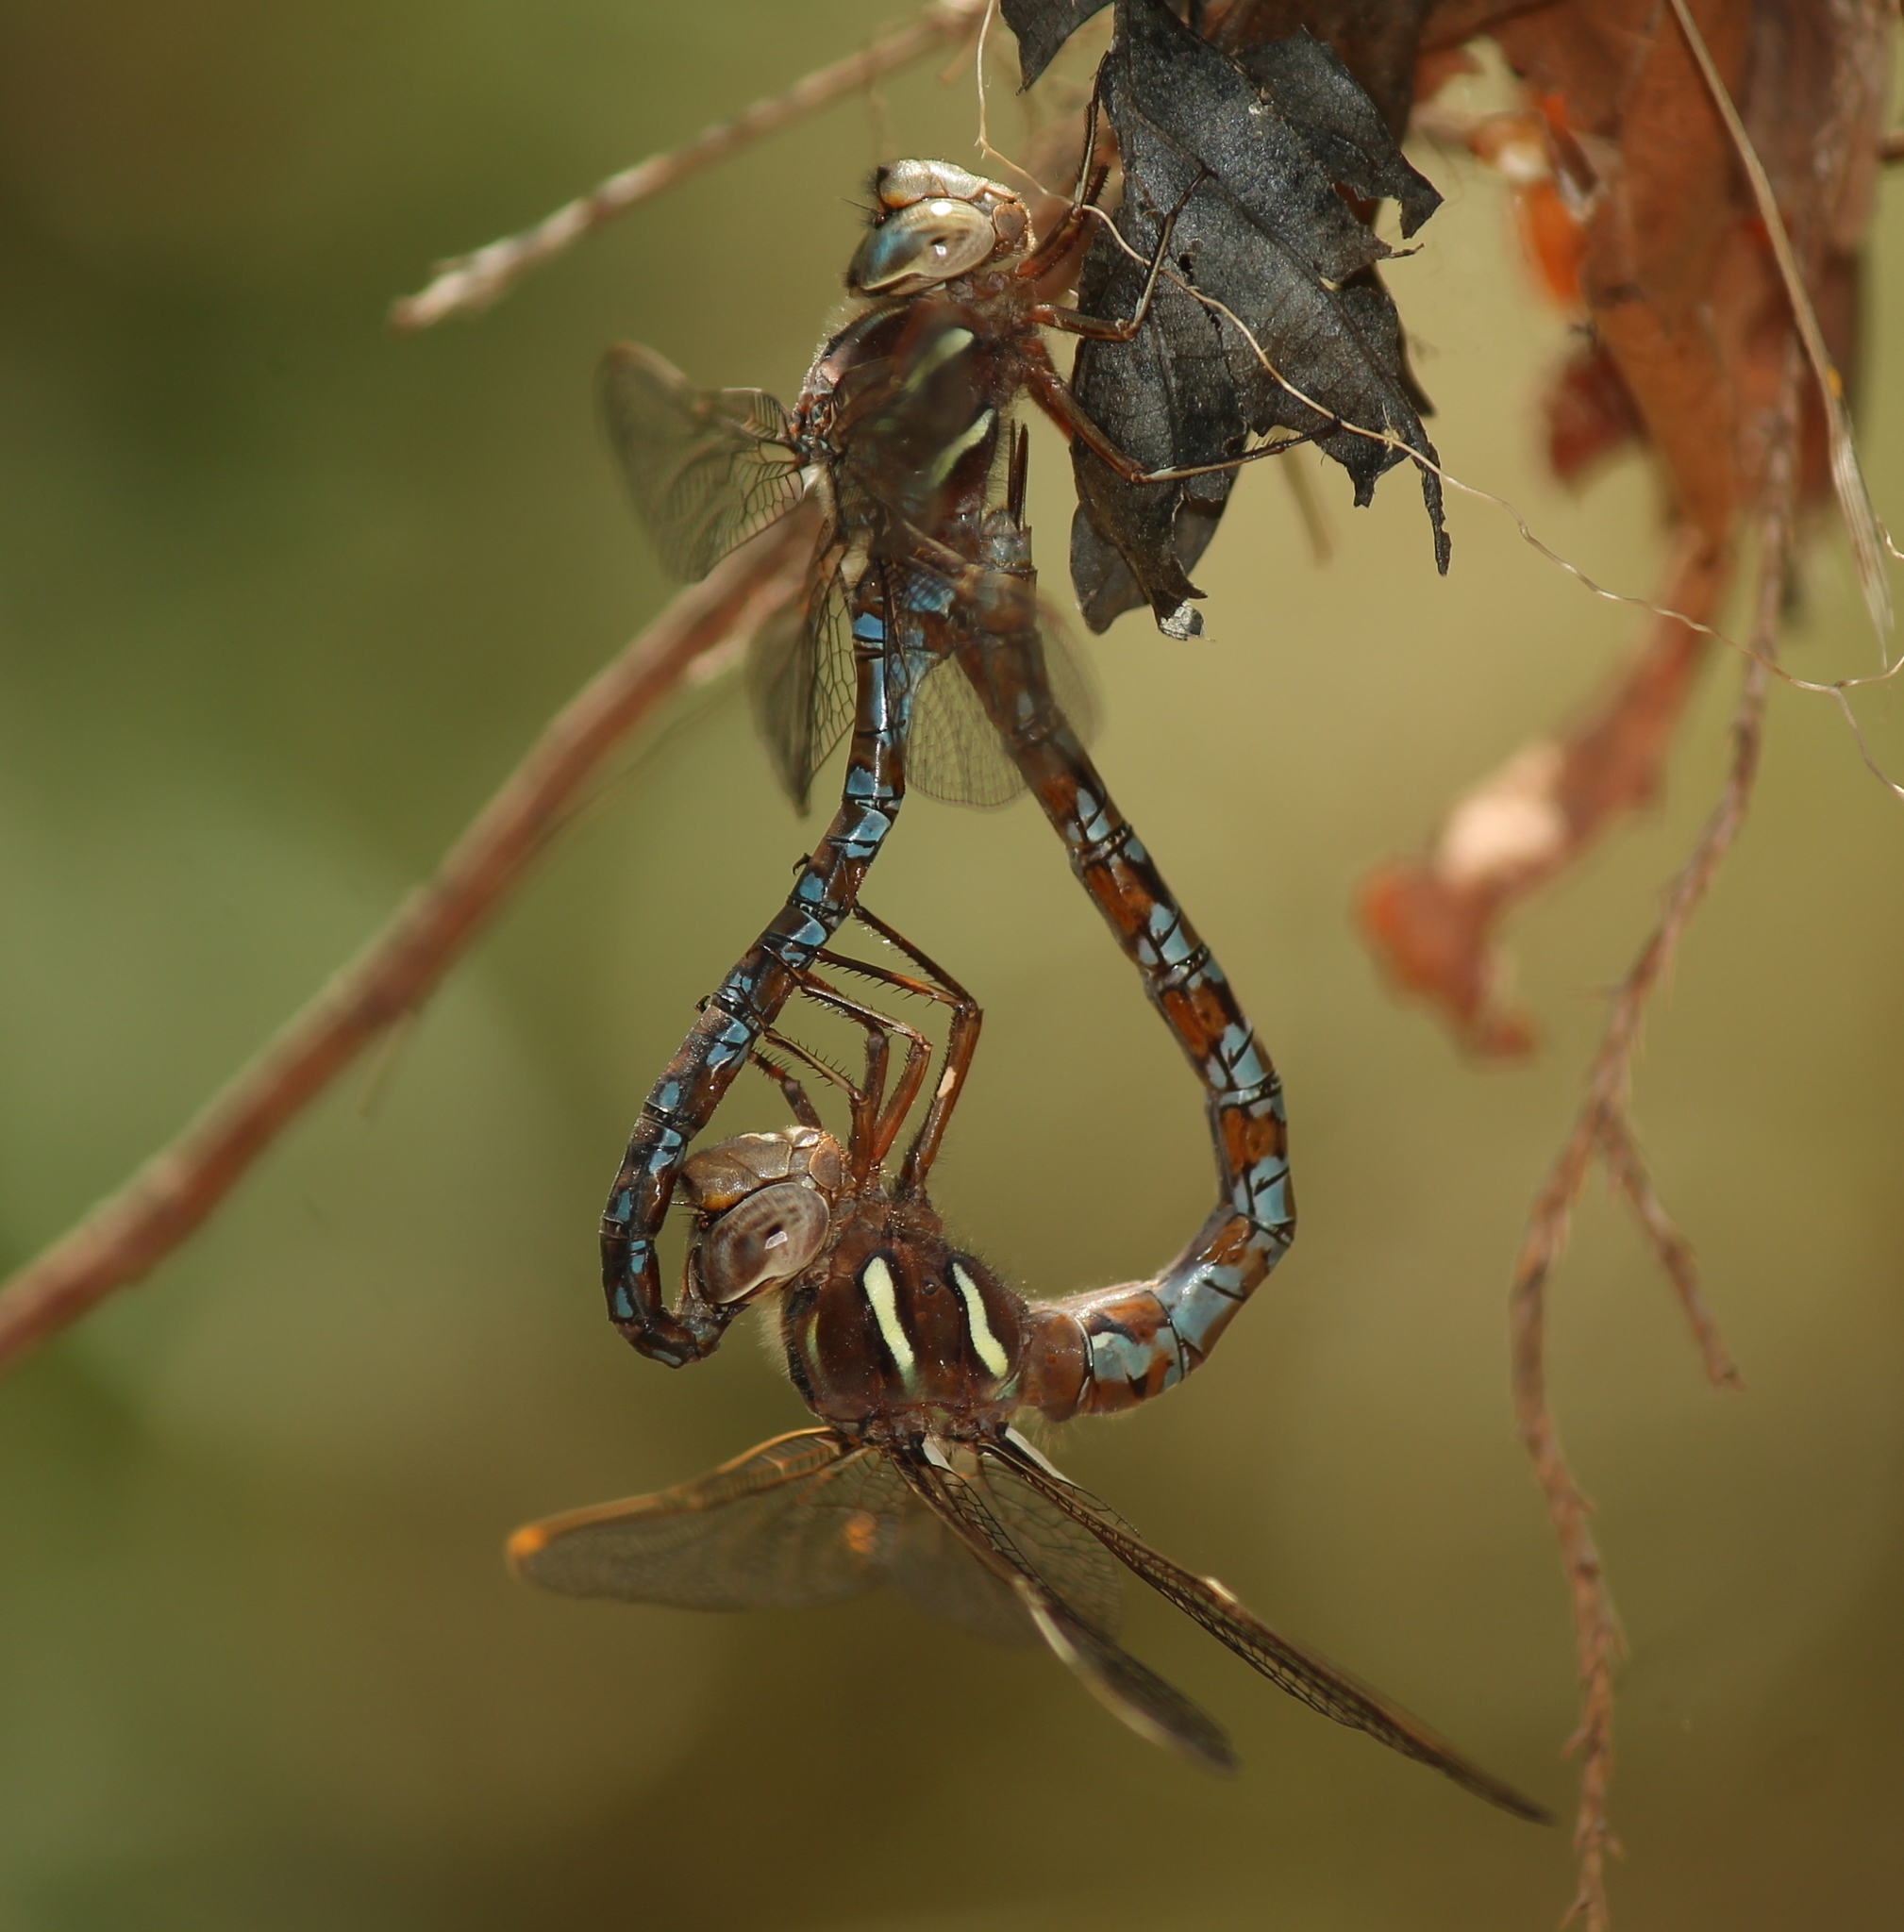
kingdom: Animalia
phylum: Arthropoda
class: Insecta
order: Odonata
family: Aeshnidae
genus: Basiaeschna
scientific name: Basiaeschna janata
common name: Springtime darner
